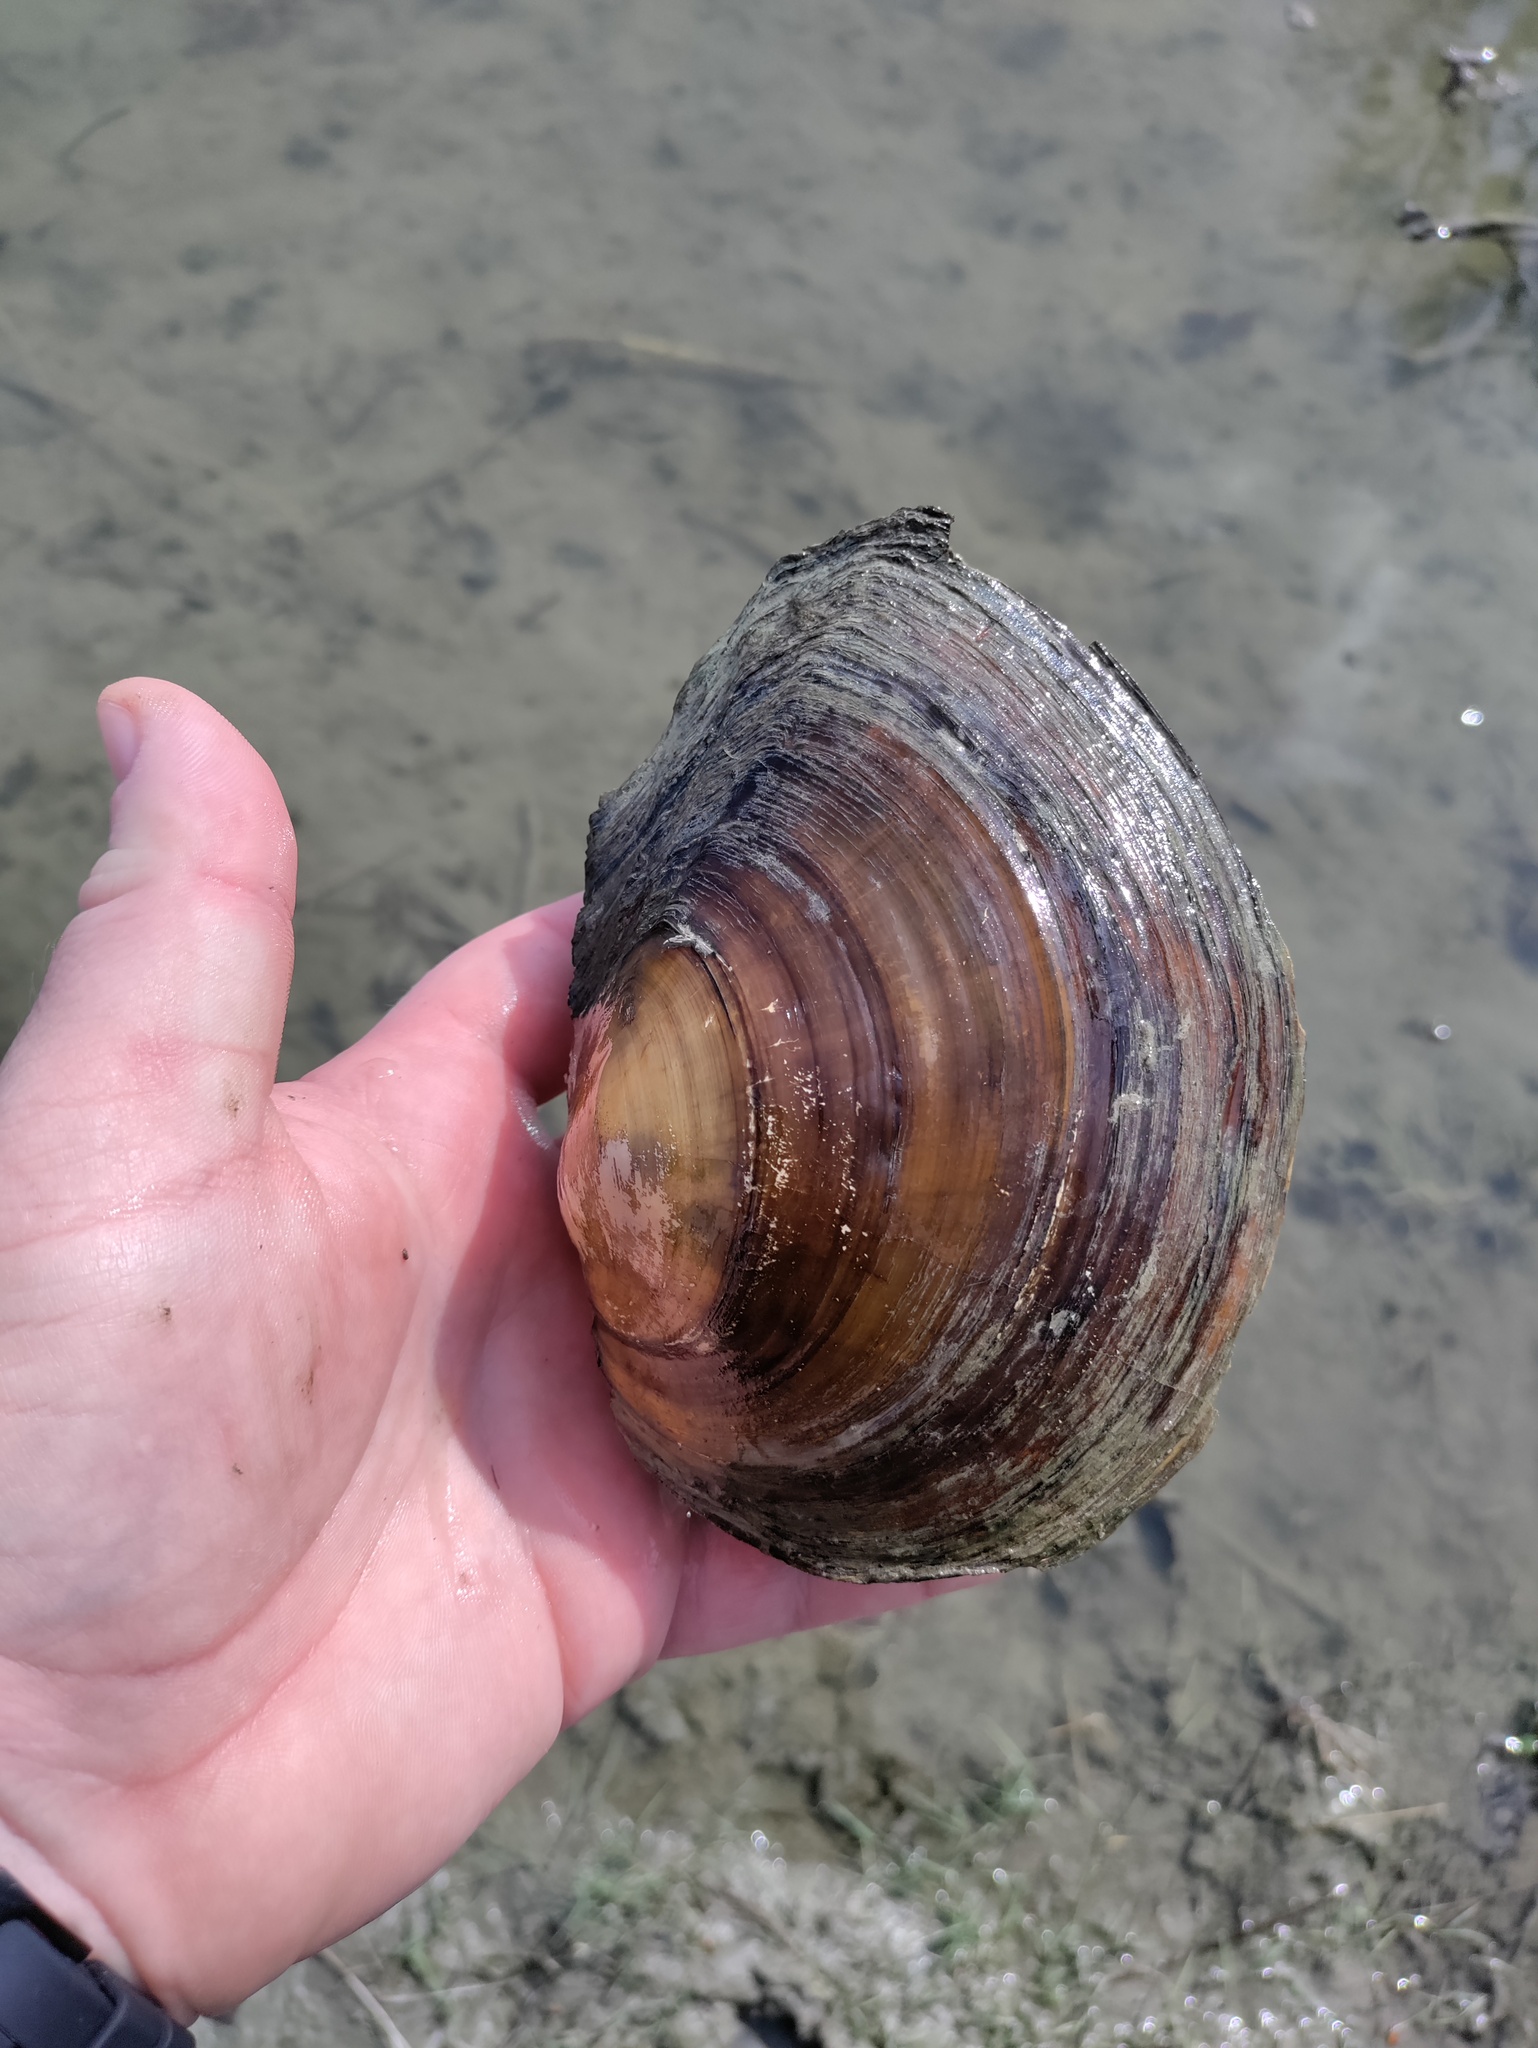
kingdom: Animalia
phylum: Mollusca
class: Bivalvia
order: Unionida
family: Unionidae
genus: Sinanodonta
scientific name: Sinanodonta woodiana
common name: Chinese pond mussel
